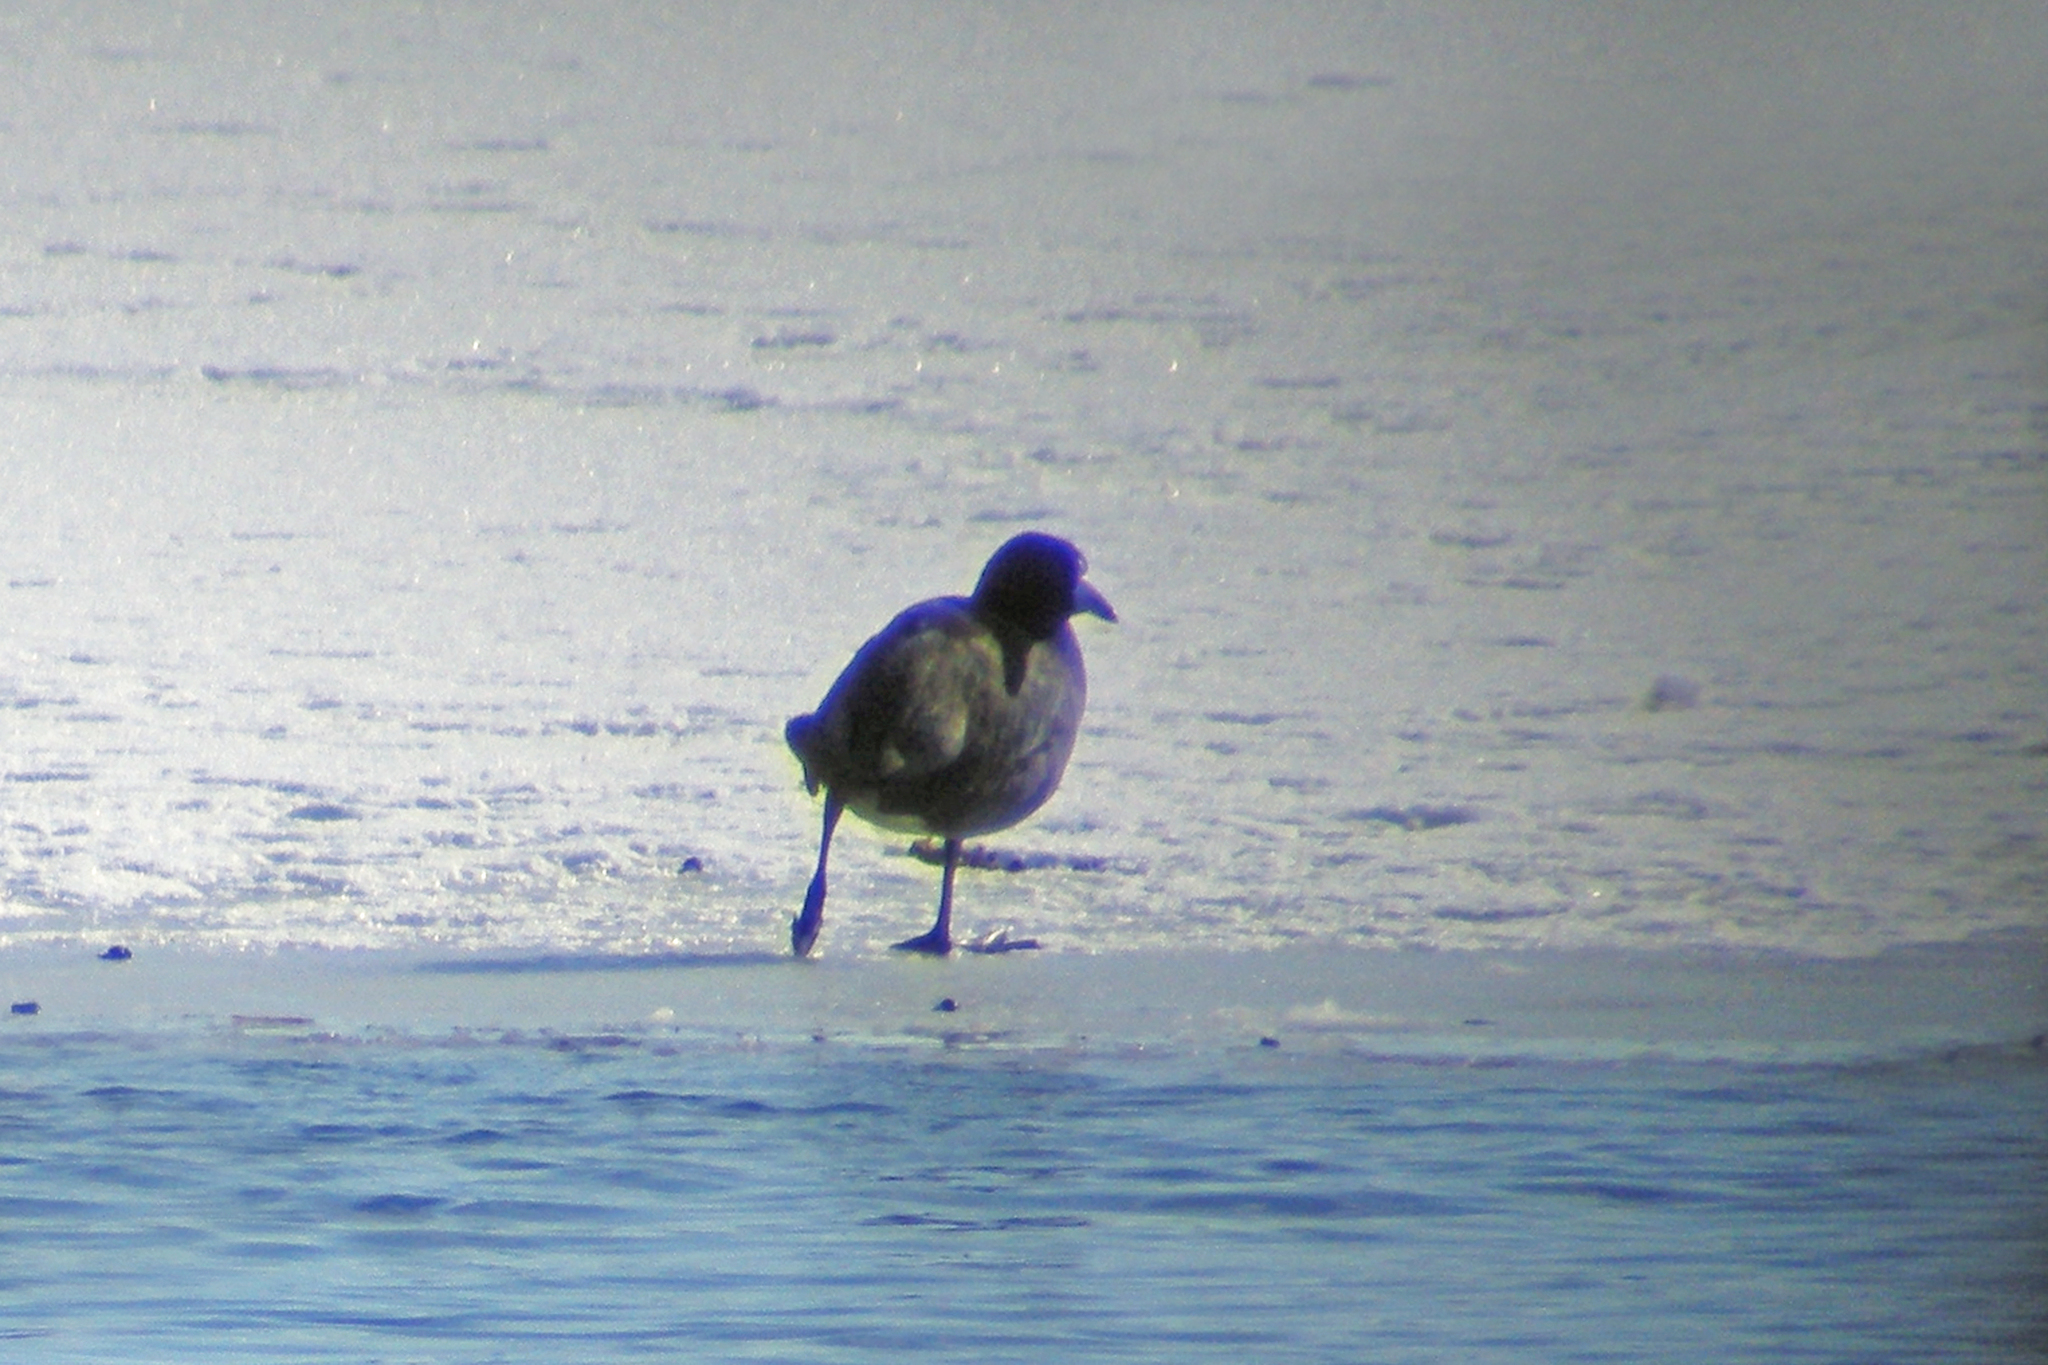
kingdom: Animalia
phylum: Chordata
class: Aves
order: Gruiformes
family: Rallidae
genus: Fulica
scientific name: Fulica americana
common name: American coot
